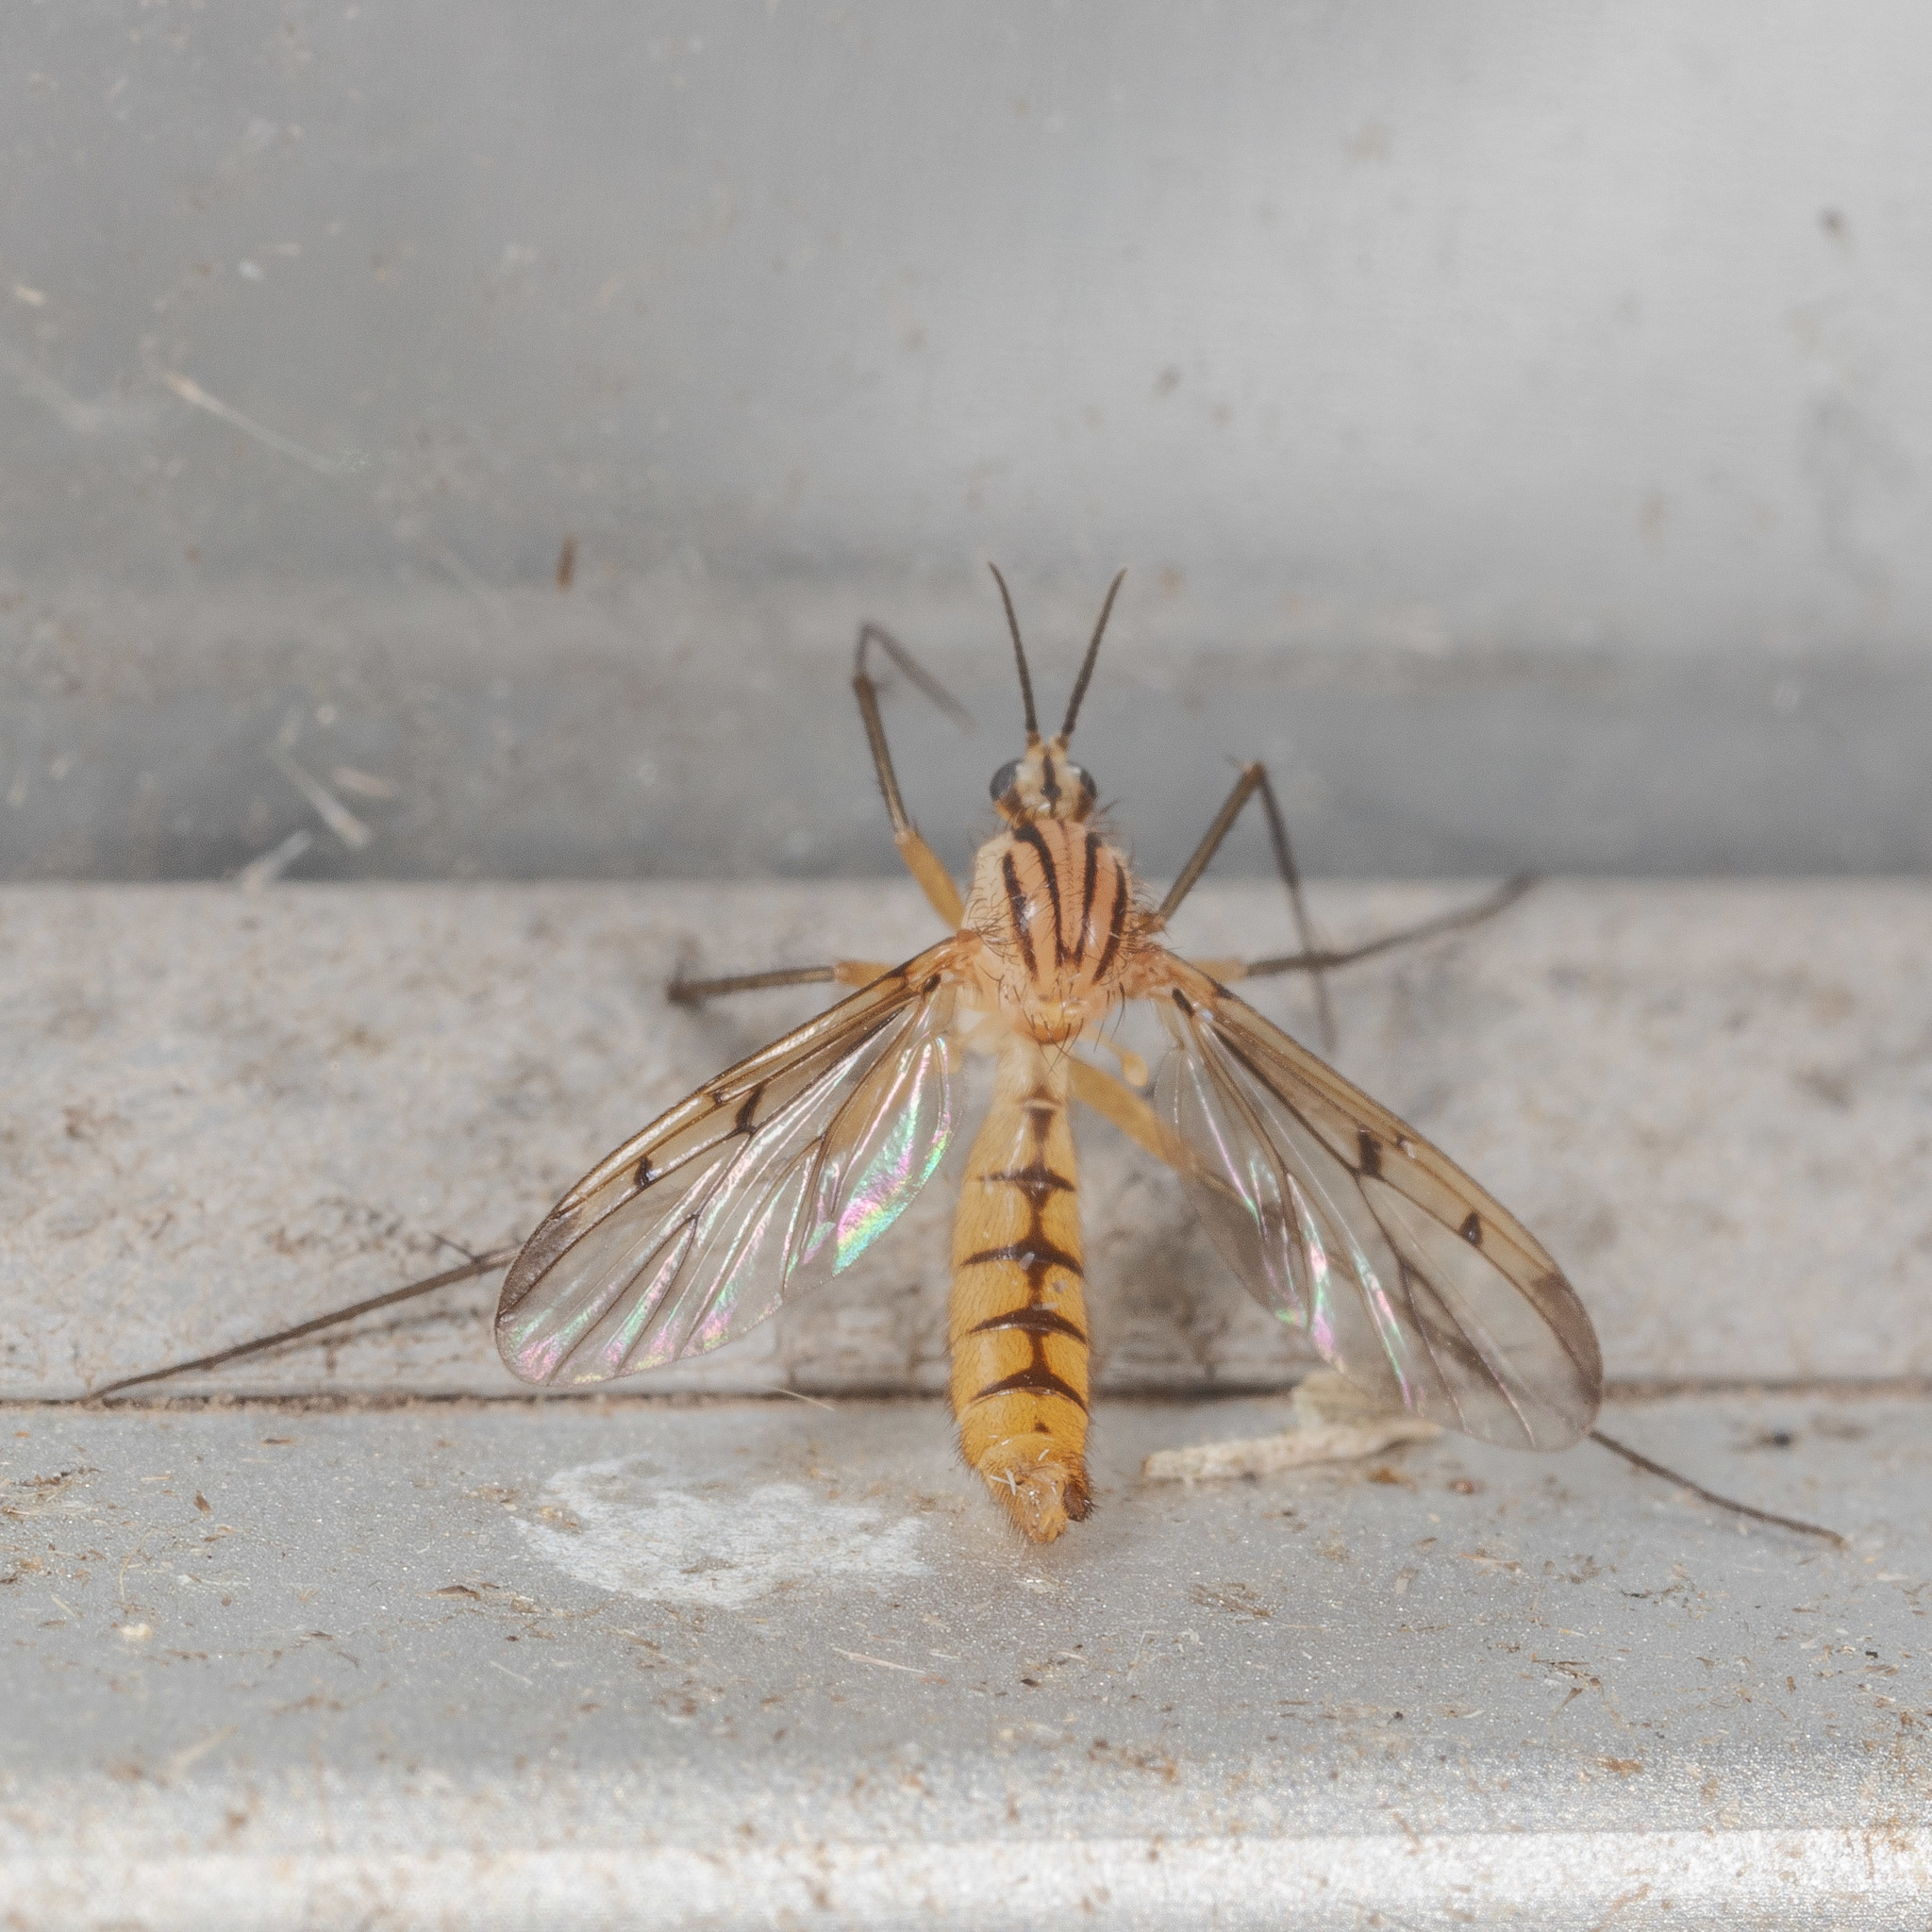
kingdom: Animalia
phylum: Arthropoda
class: Insecta
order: Diptera
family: Mycetophilidae
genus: Neoempheria
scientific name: Neoempheria balioptera
